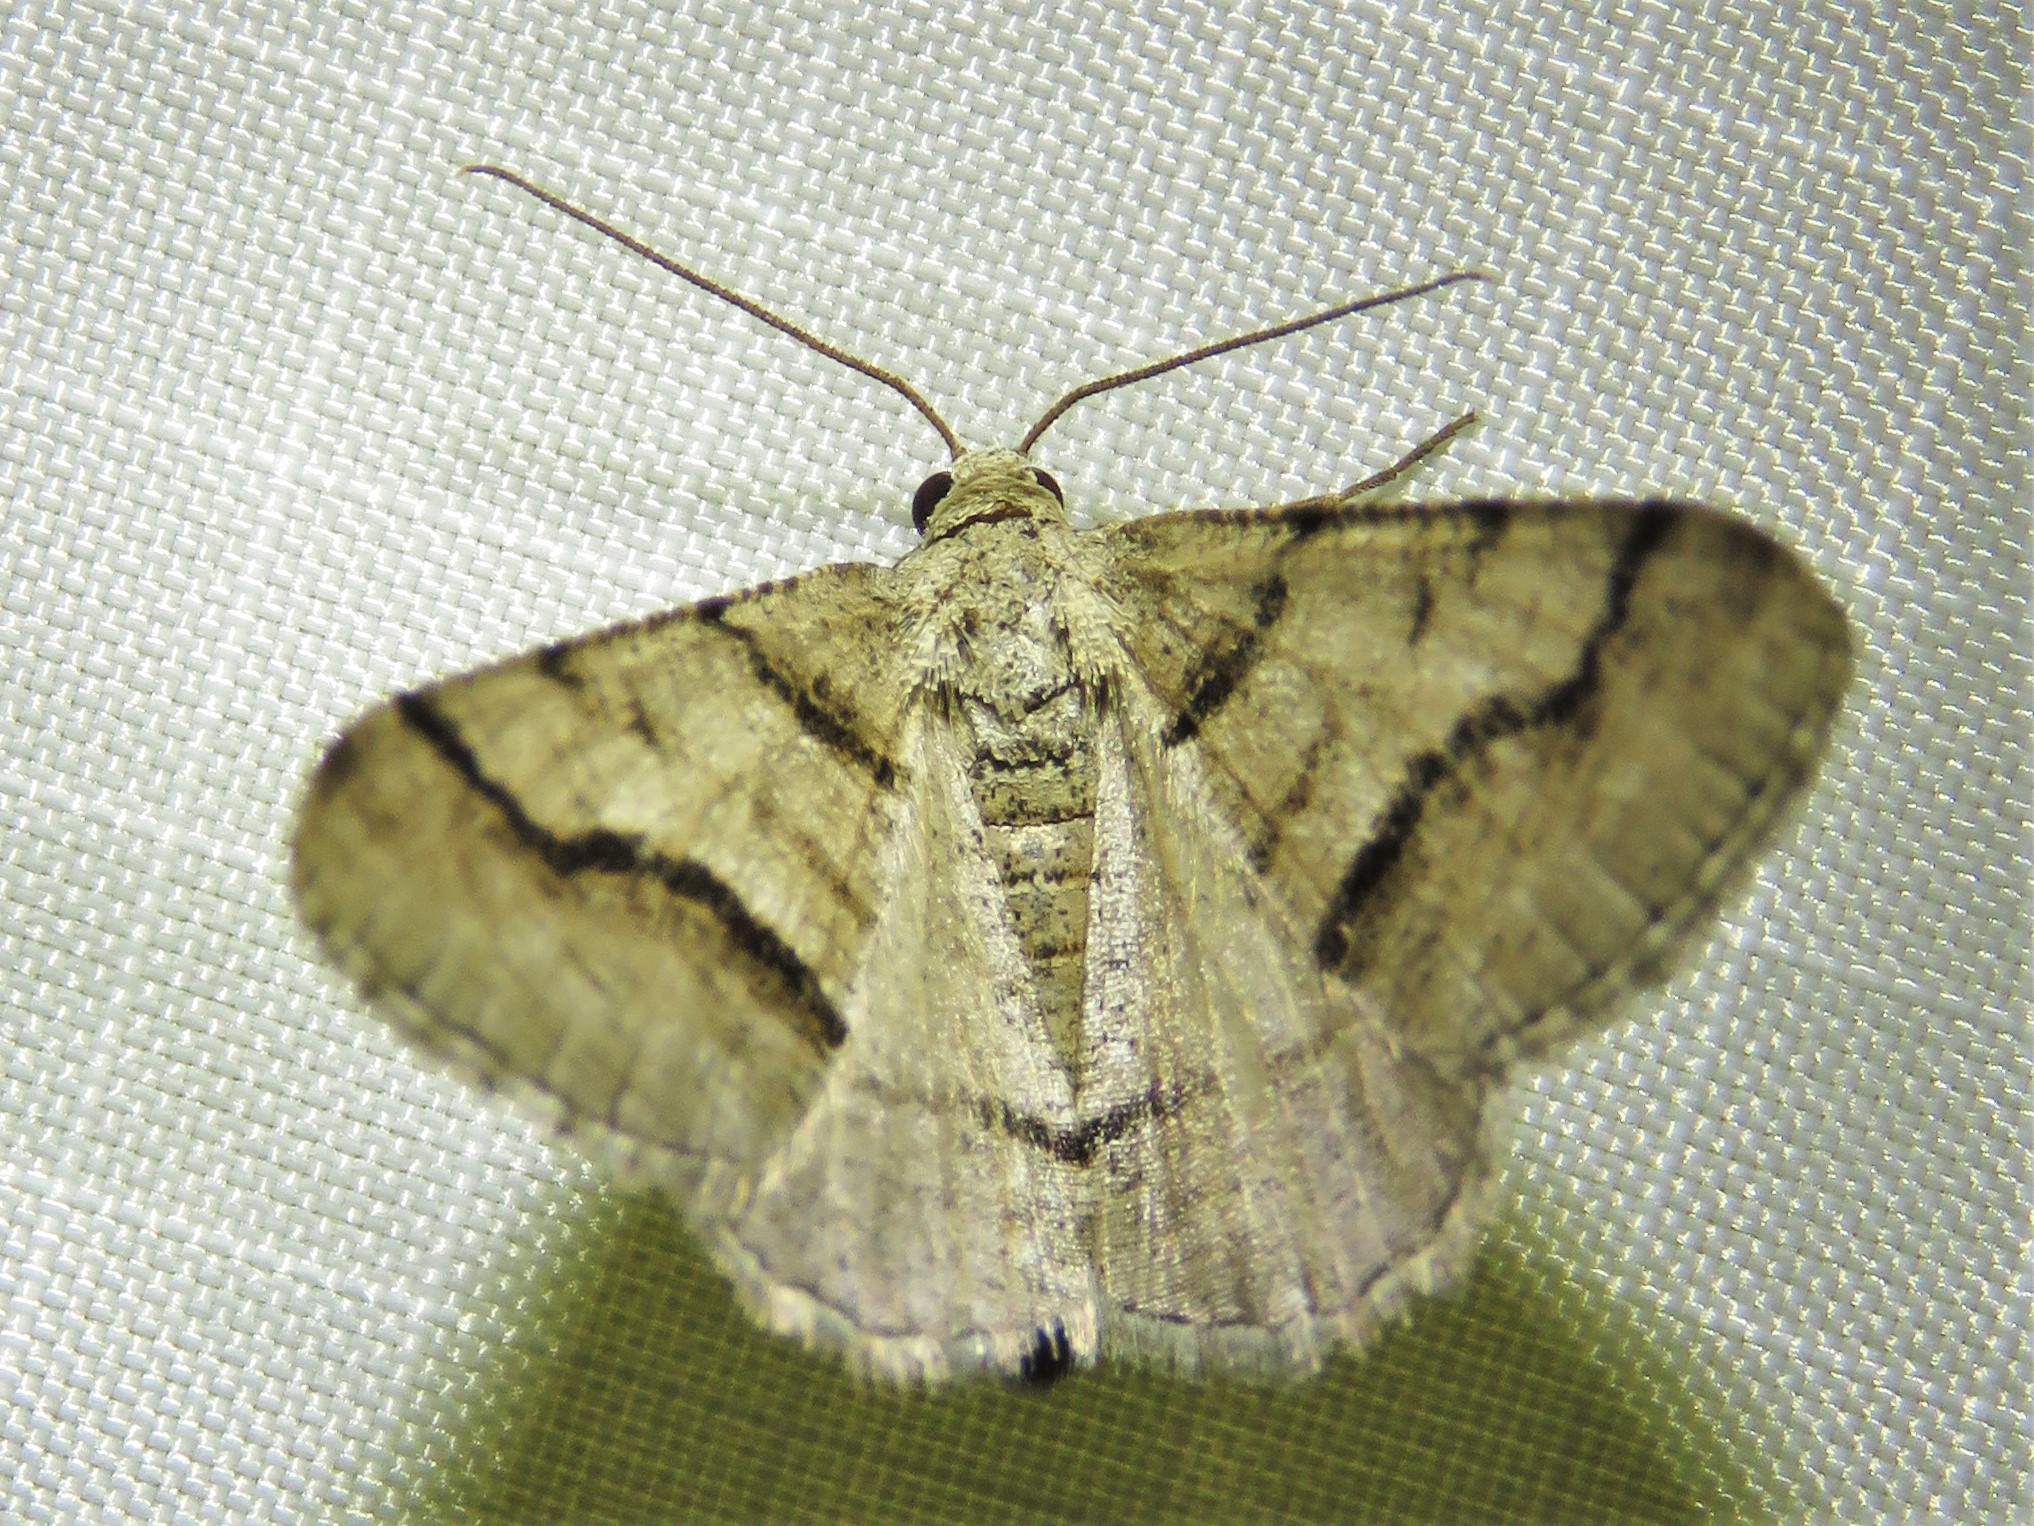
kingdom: Animalia
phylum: Arthropoda
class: Insecta
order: Lepidoptera
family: Geometridae
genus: Digrammia
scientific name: Digrammia continuata
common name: Curve-lined angle
